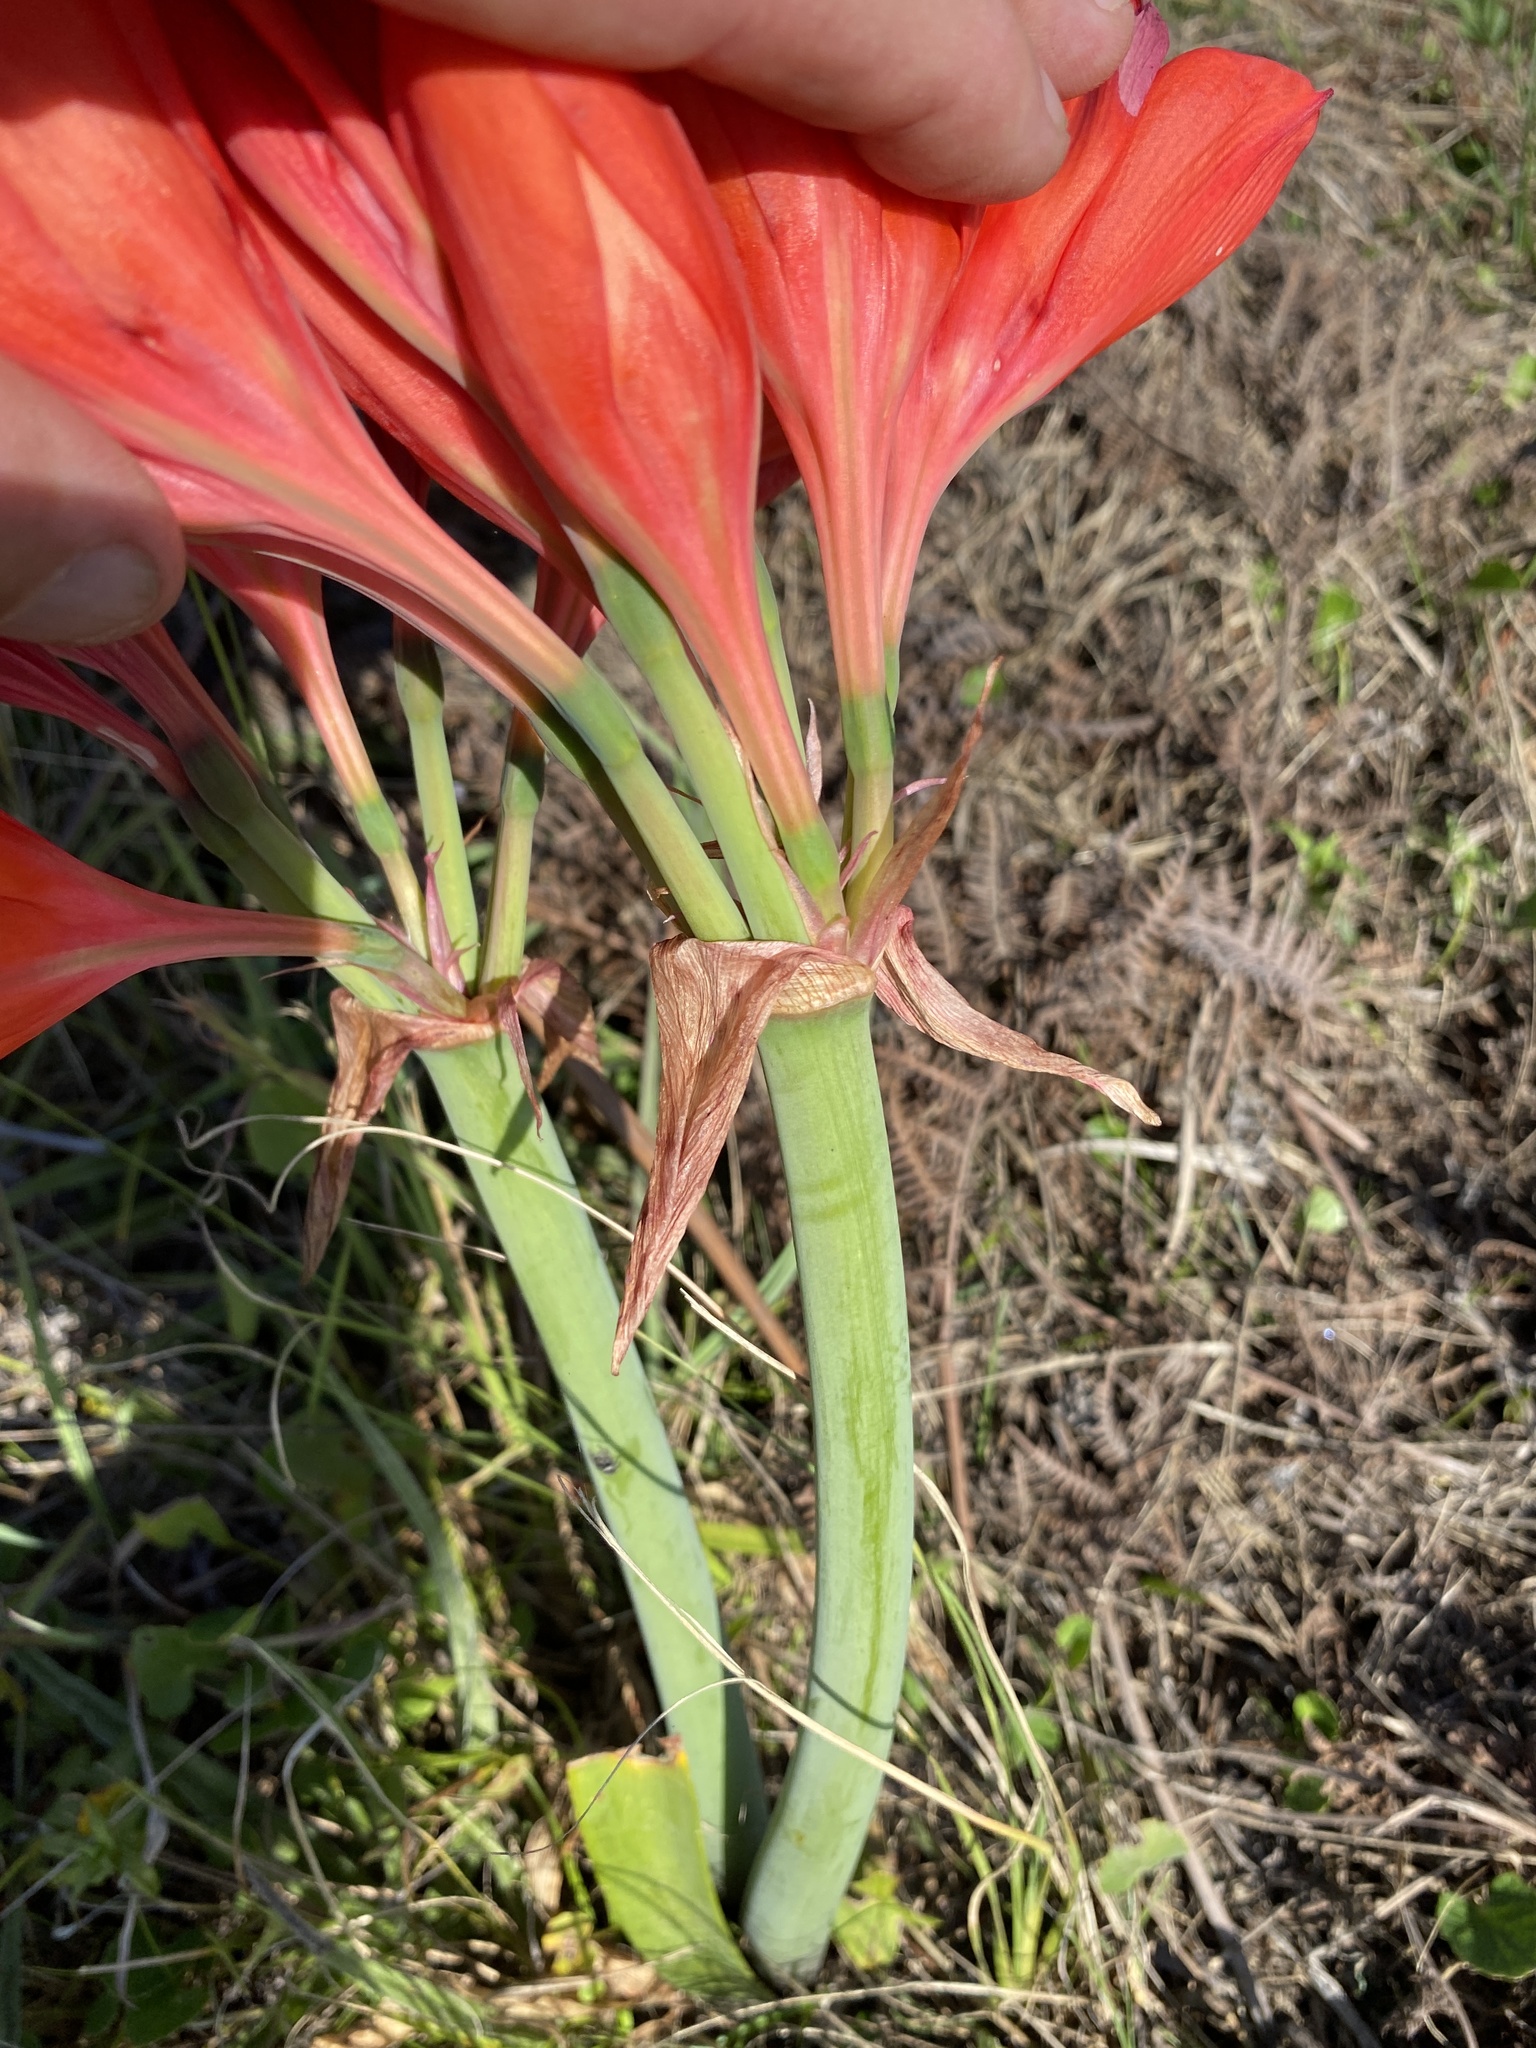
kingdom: Plantae
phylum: Tracheophyta
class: Liliopsida
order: Asparagales
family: Amaryllidaceae
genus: Cyrtanthus
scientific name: Cyrtanthus elatus
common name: Scarborough-lily
